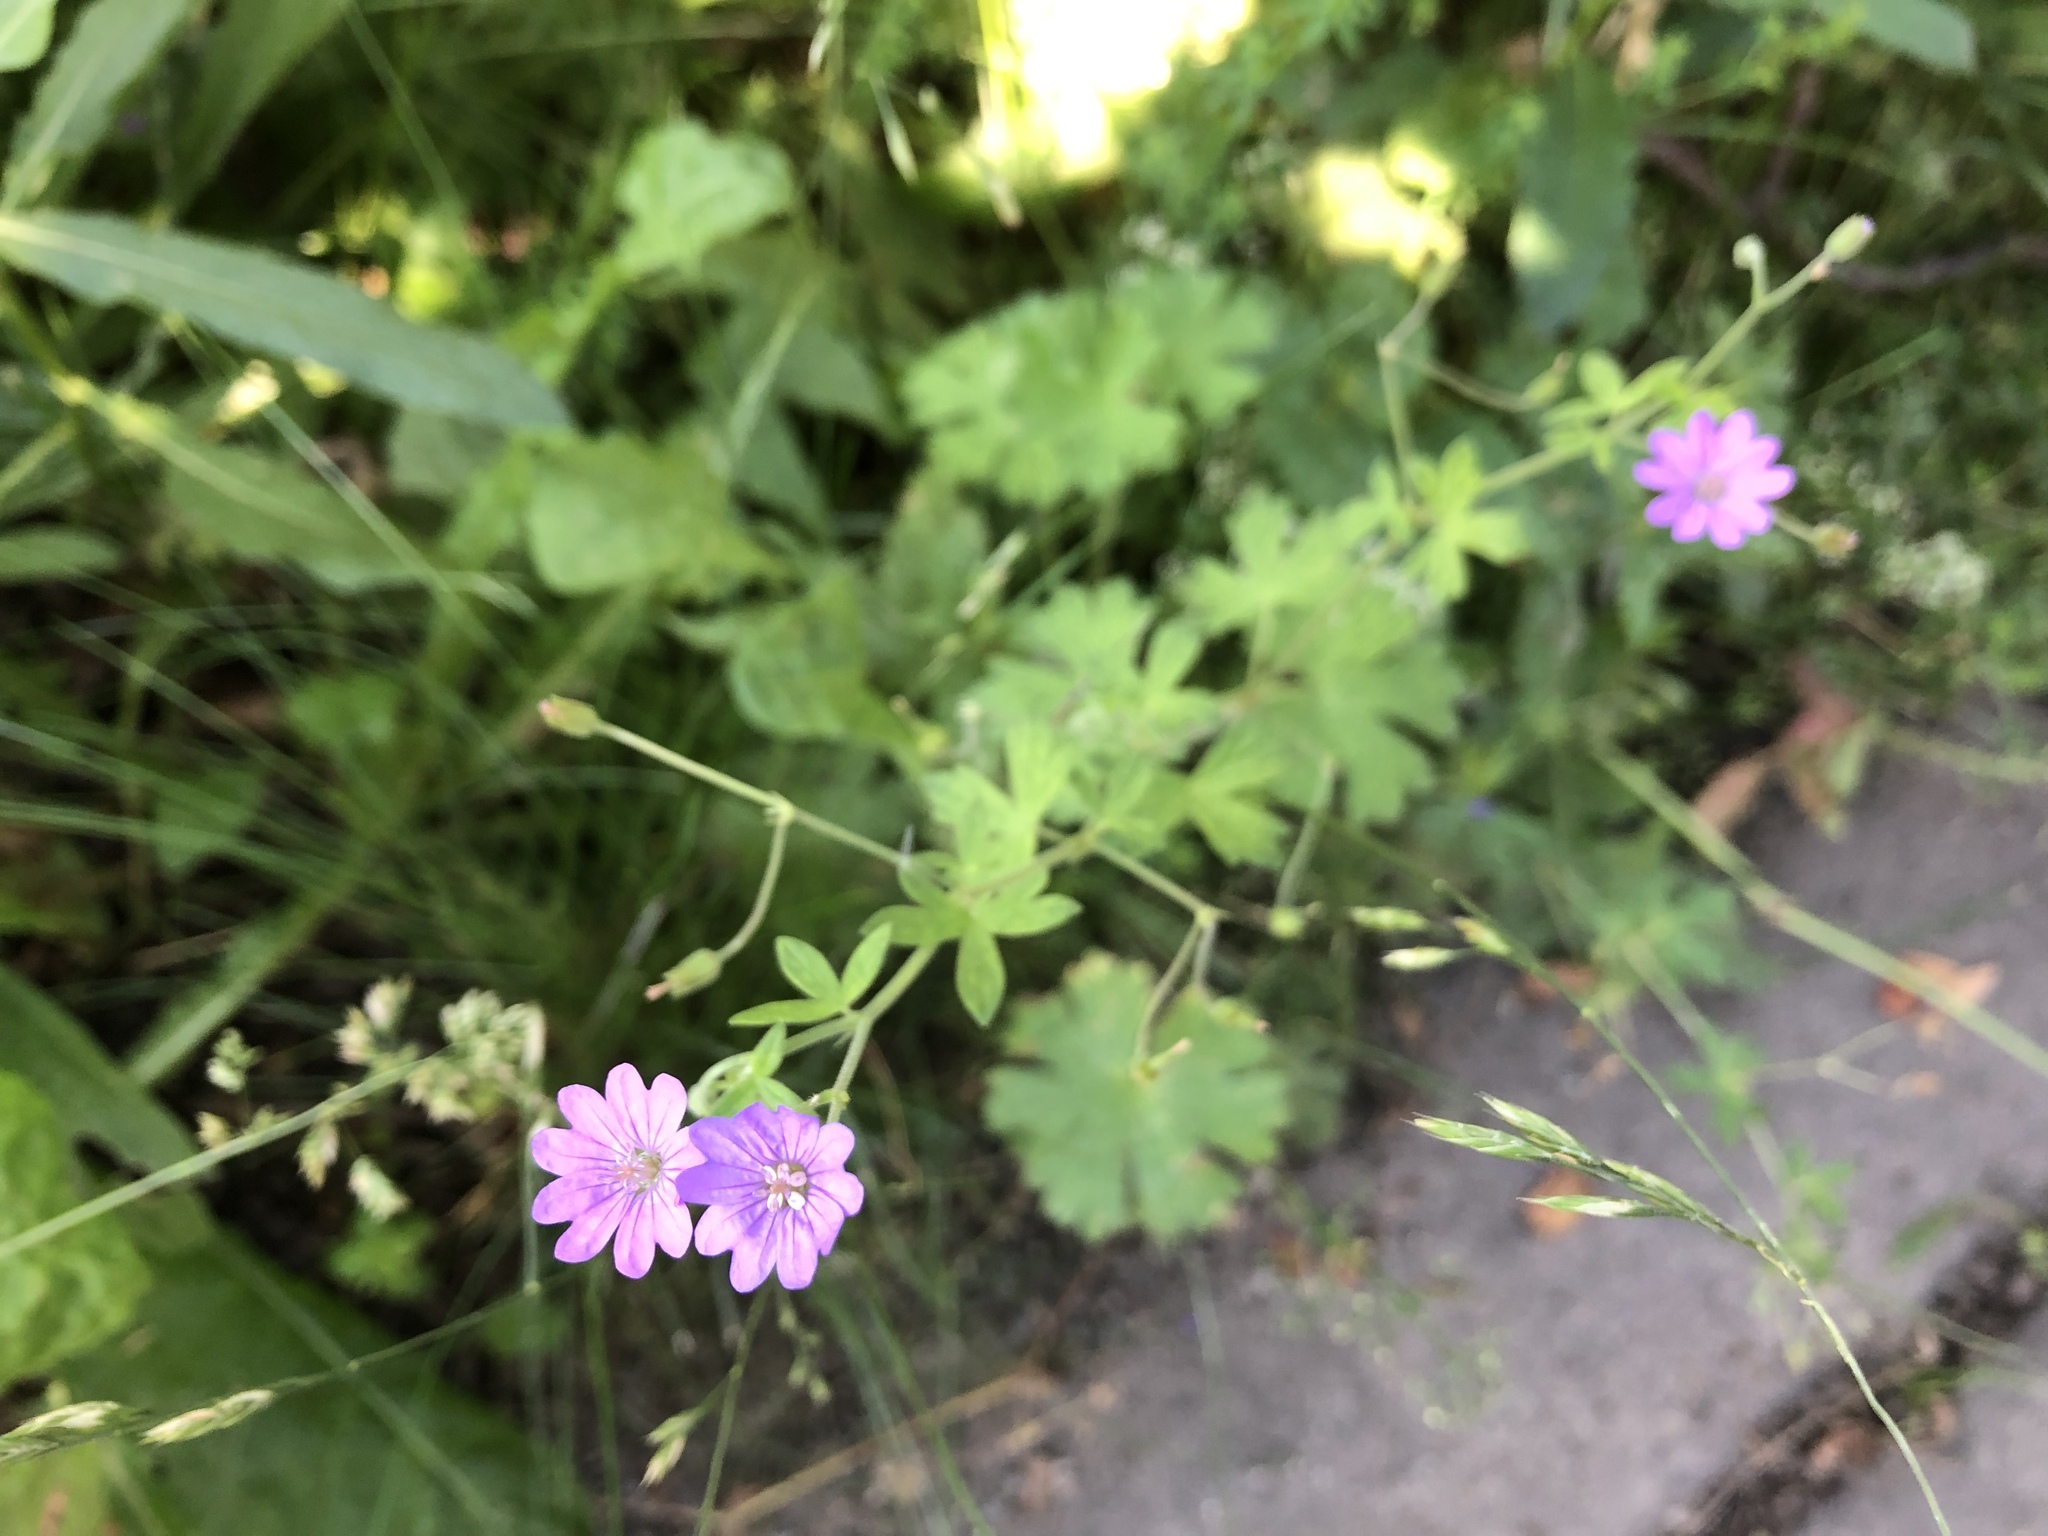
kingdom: Plantae
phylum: Tracheophyta
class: Magnoliopsida
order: Geraniales
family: Geraniaceae
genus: Geranium
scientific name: Geranium pyrenaicum
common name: Hedgerow crane's-bill
